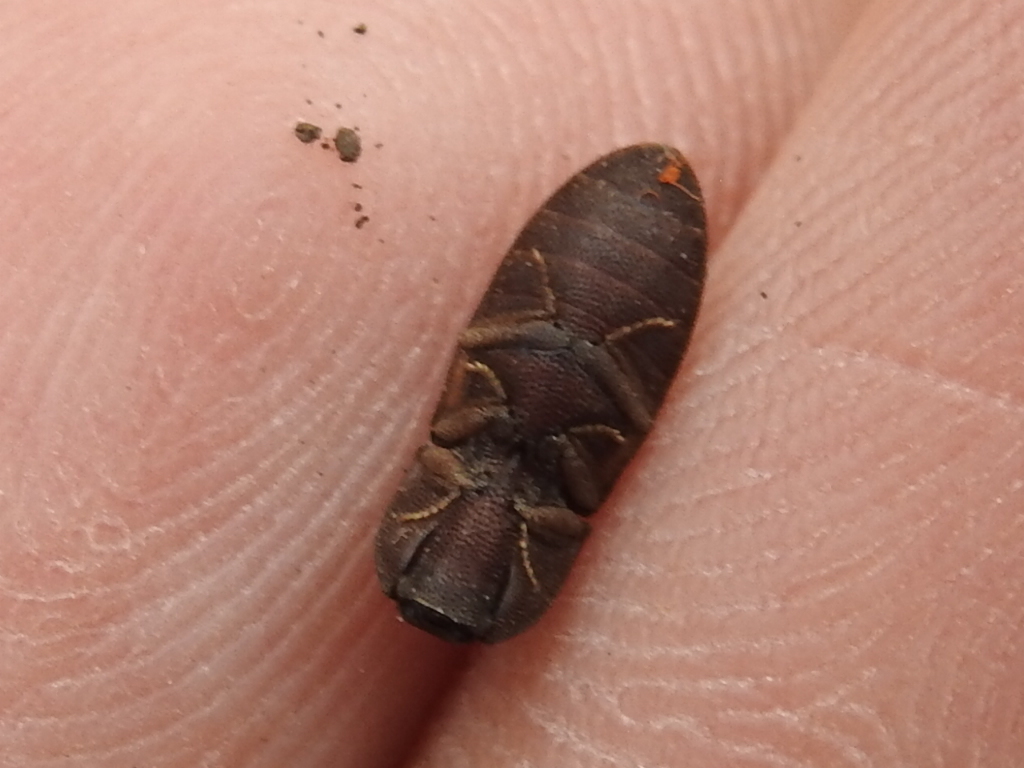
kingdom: Animalia
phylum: Arthropoda
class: Insecta
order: Coleoptera
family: Elateridae
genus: Agrypnus
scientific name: Agrypnus rectangularis
